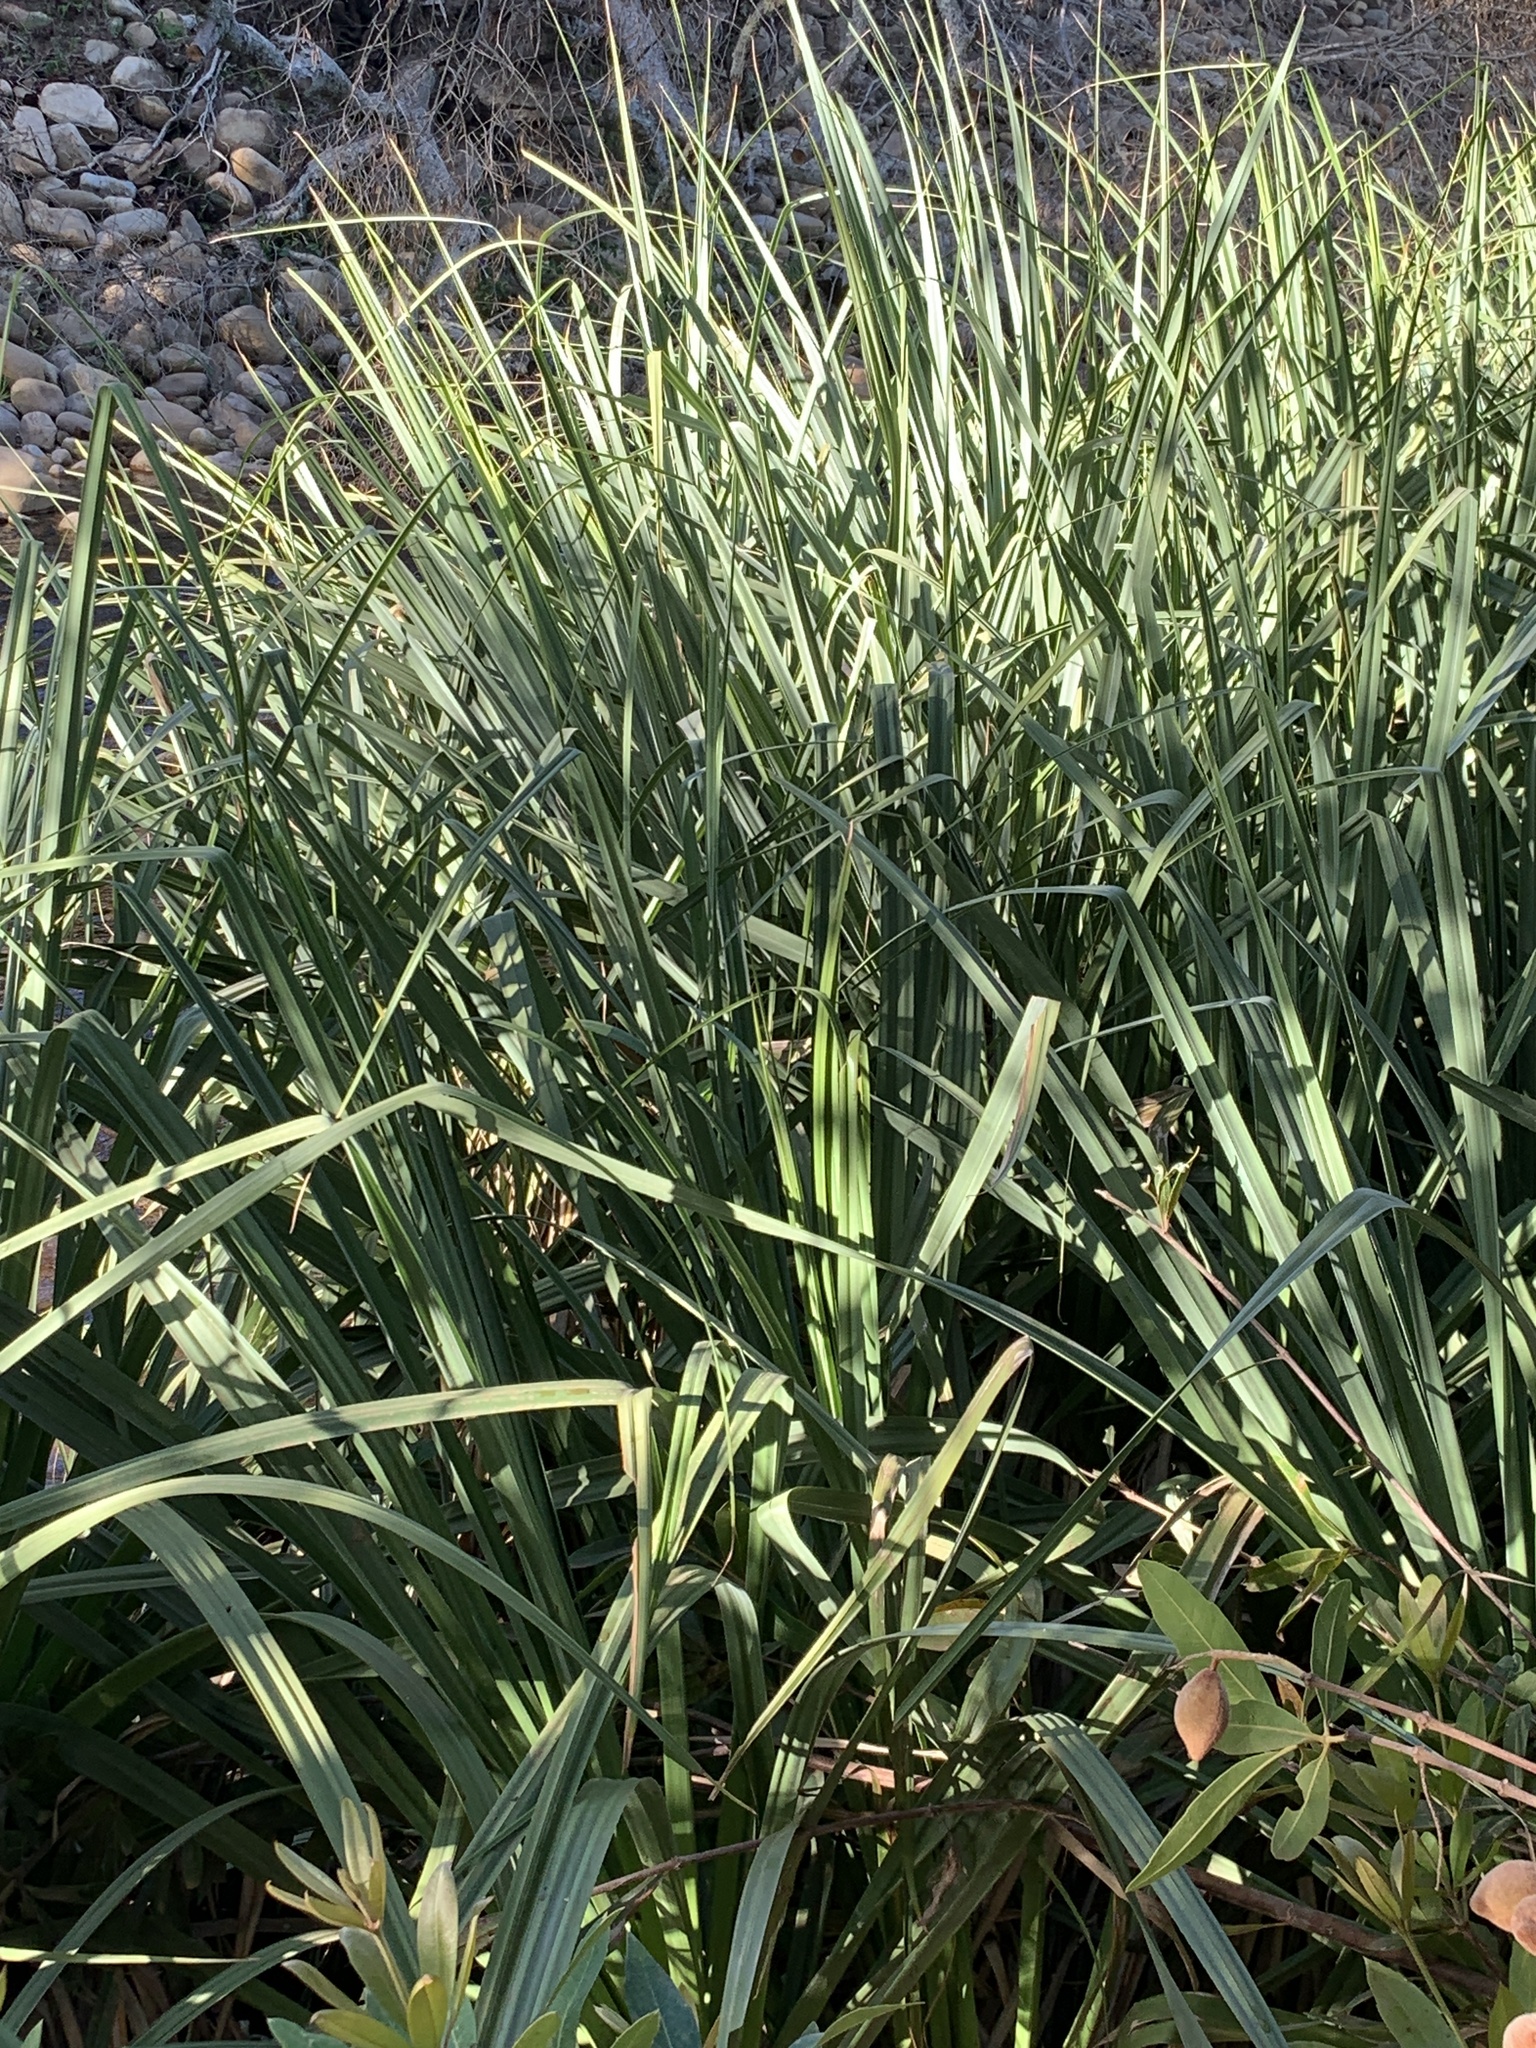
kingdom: Plantae
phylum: Tracheophyta
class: Liliopsida
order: Poales
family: Thurniaceae
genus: Prionium
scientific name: Prionium serratum
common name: Palmiet
